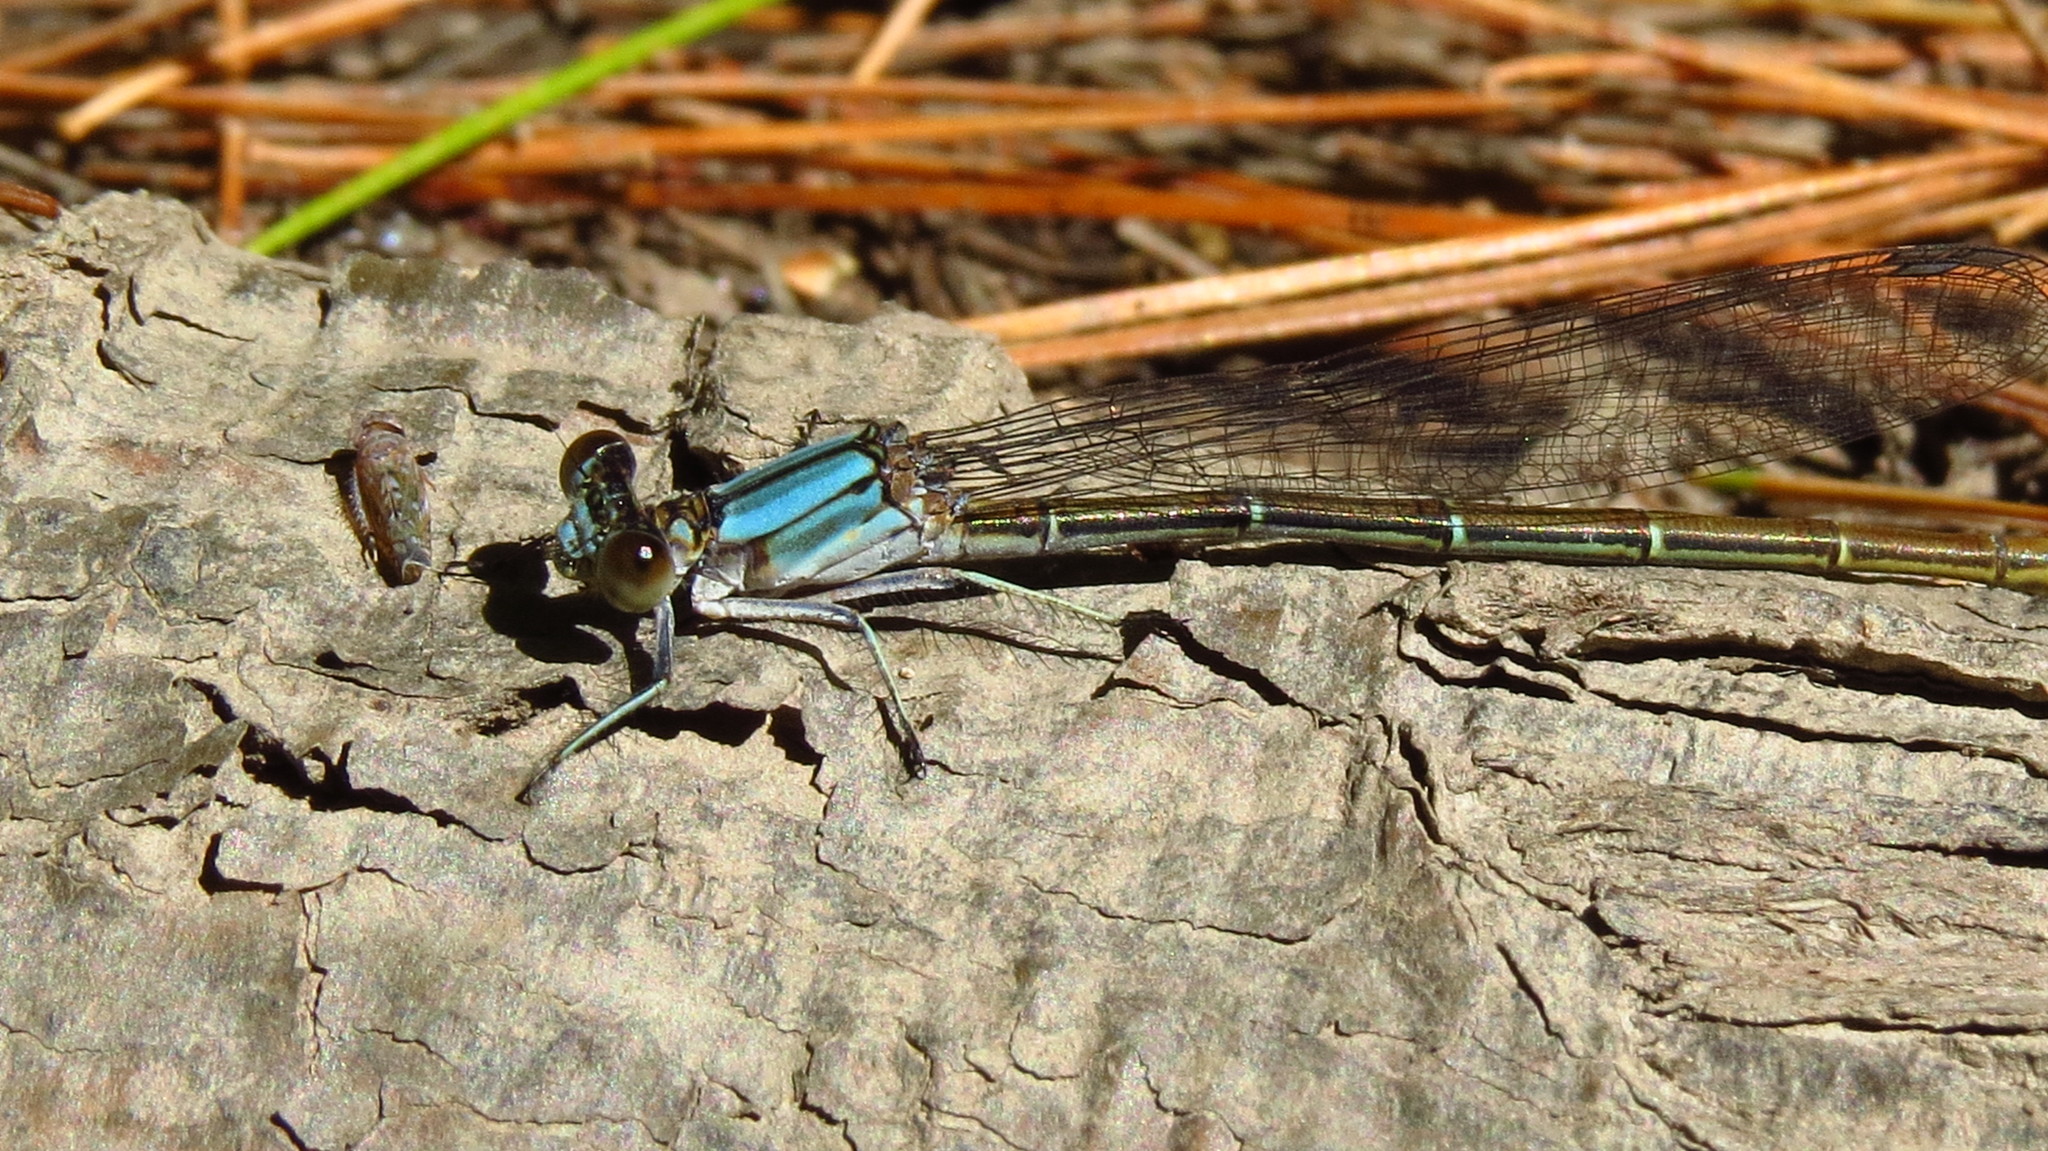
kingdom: Animalia
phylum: Arthropoda
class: Insecta
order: Odonata
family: Coenagrionidae
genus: Argia
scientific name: Argia moesta
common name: Powdered dancer
